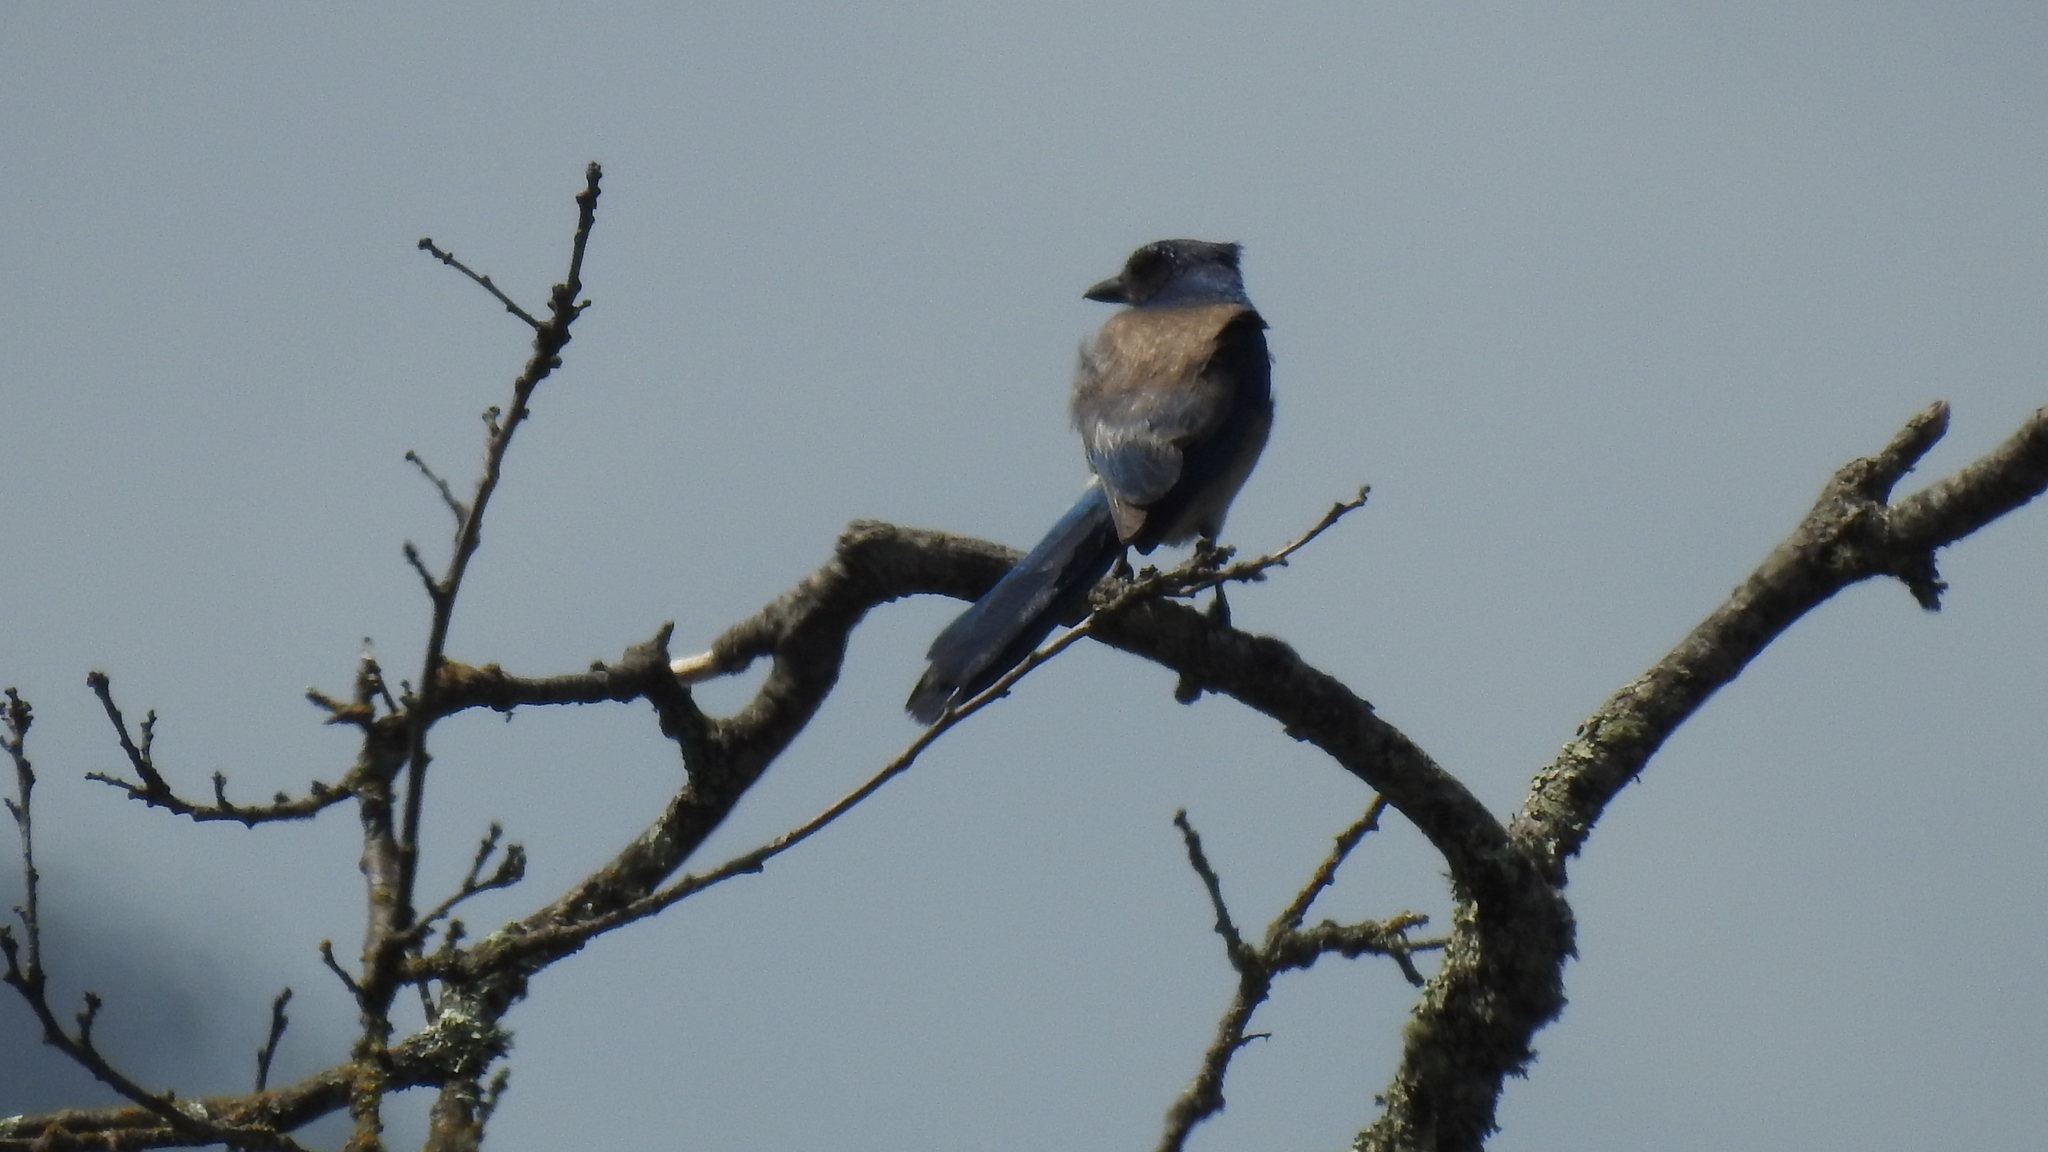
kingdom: Animalia
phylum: Chordata
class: Aves
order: Passeriformes
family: Corvidae
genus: Aphelocoma
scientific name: Aphelocoma californica
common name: California scrub-jay
